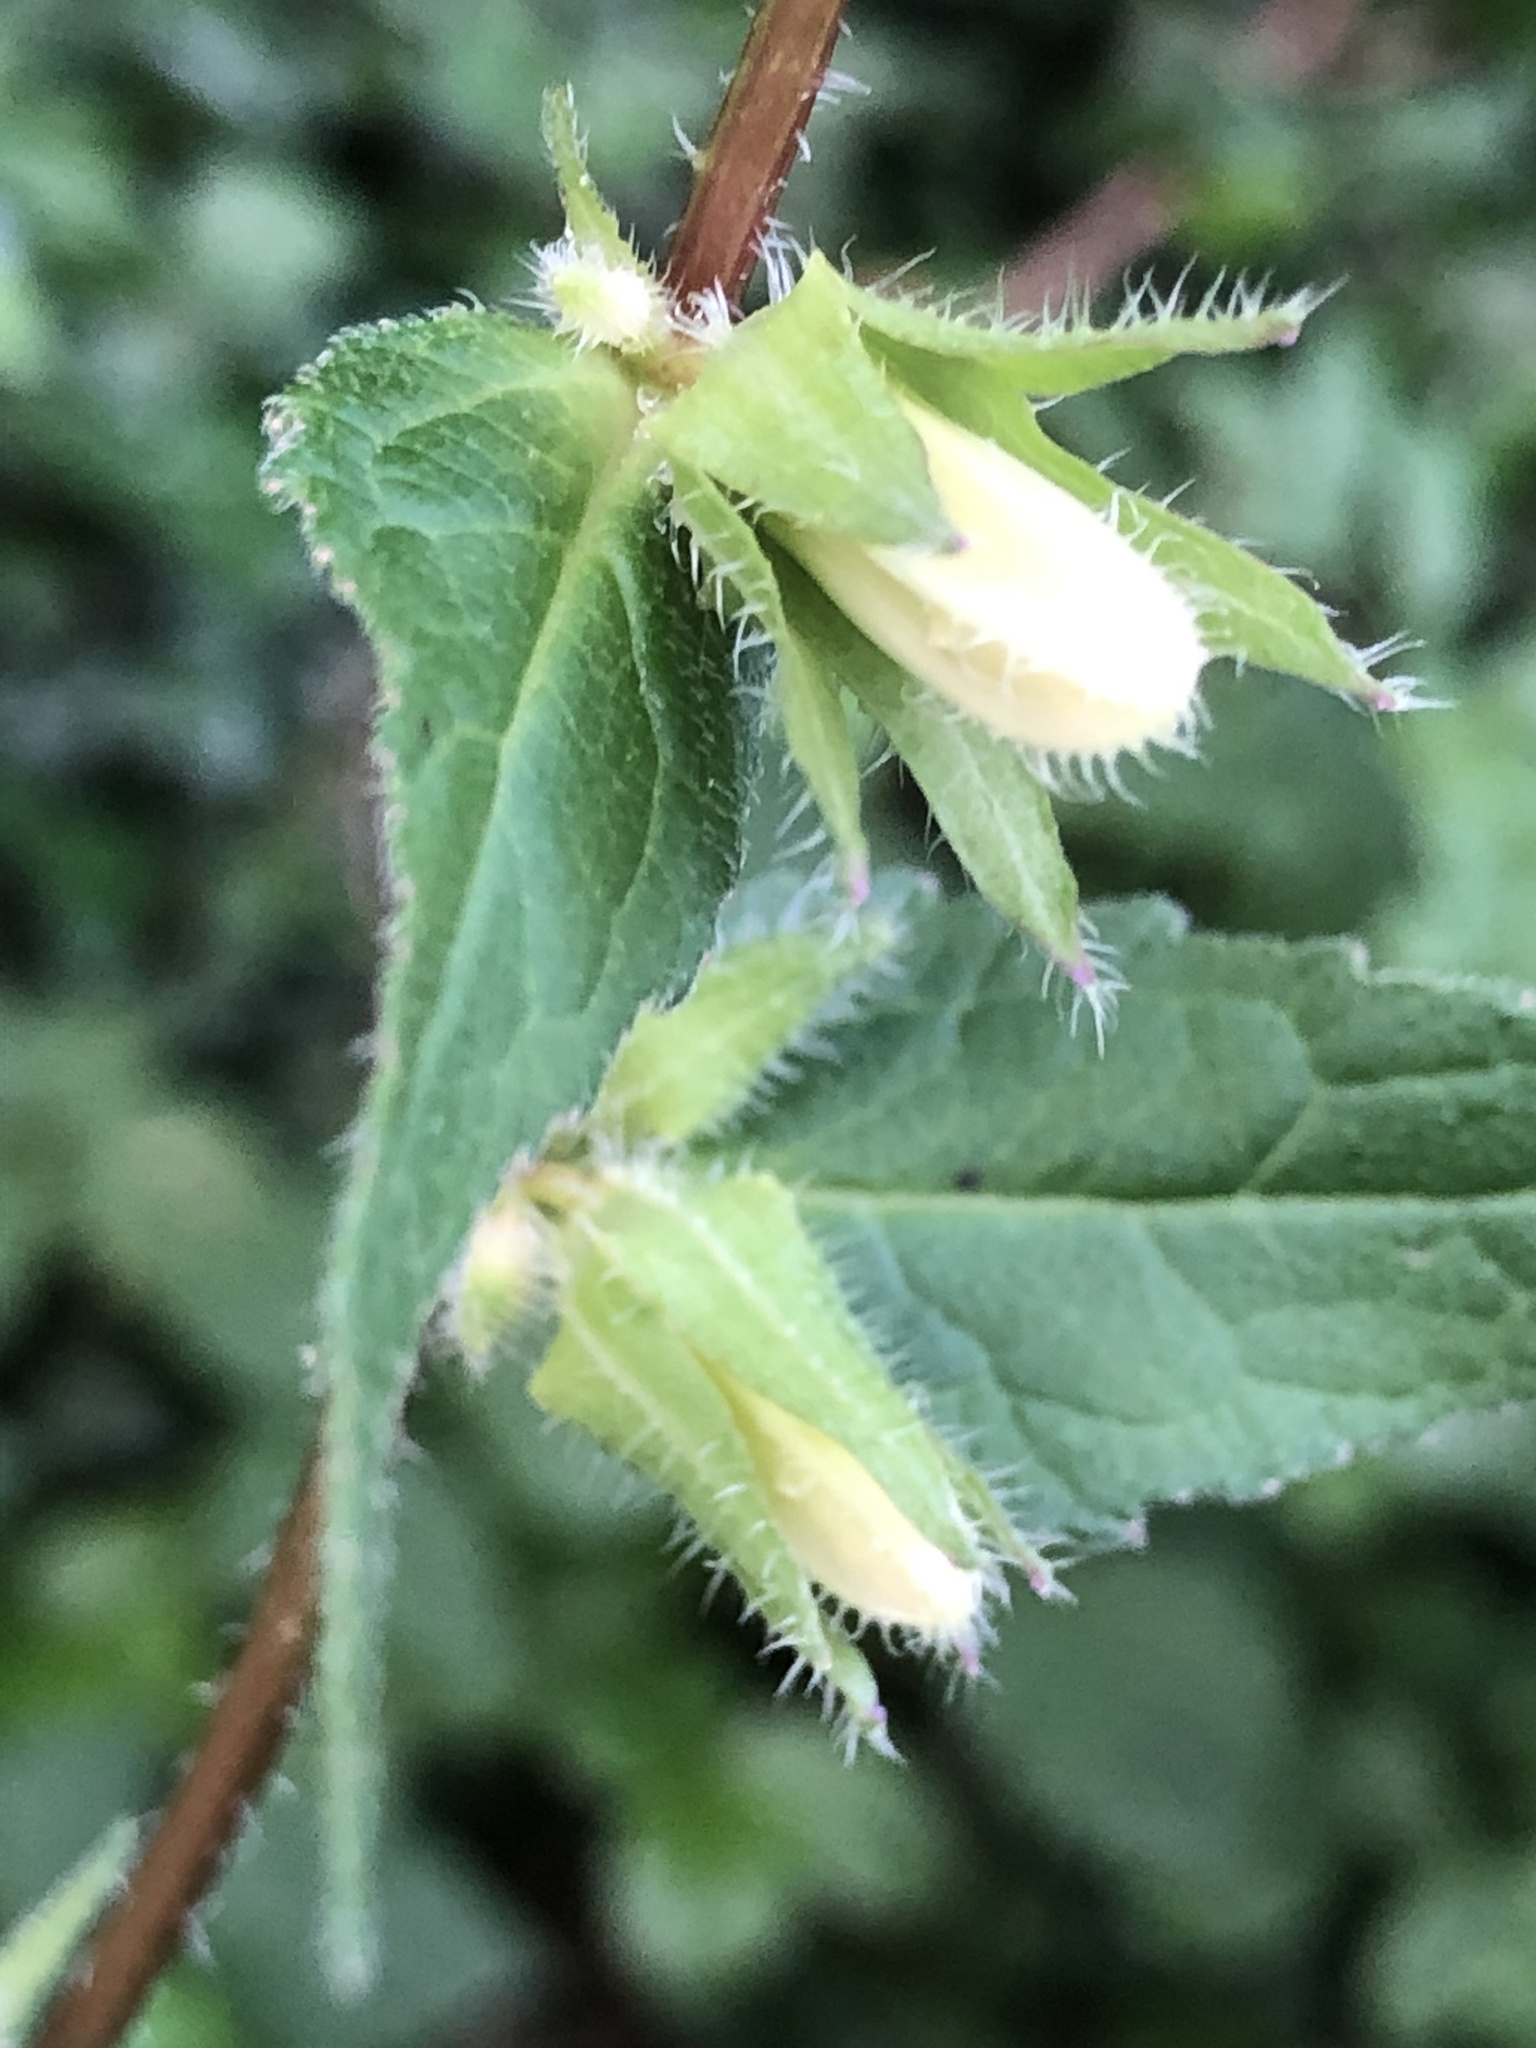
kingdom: Plantae
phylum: Tracheophyta
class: Magnoliopsida
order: Asterales
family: Campanulaceae
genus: Campanula
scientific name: Campanula trachelium
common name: Nettle-leaved bellflower
